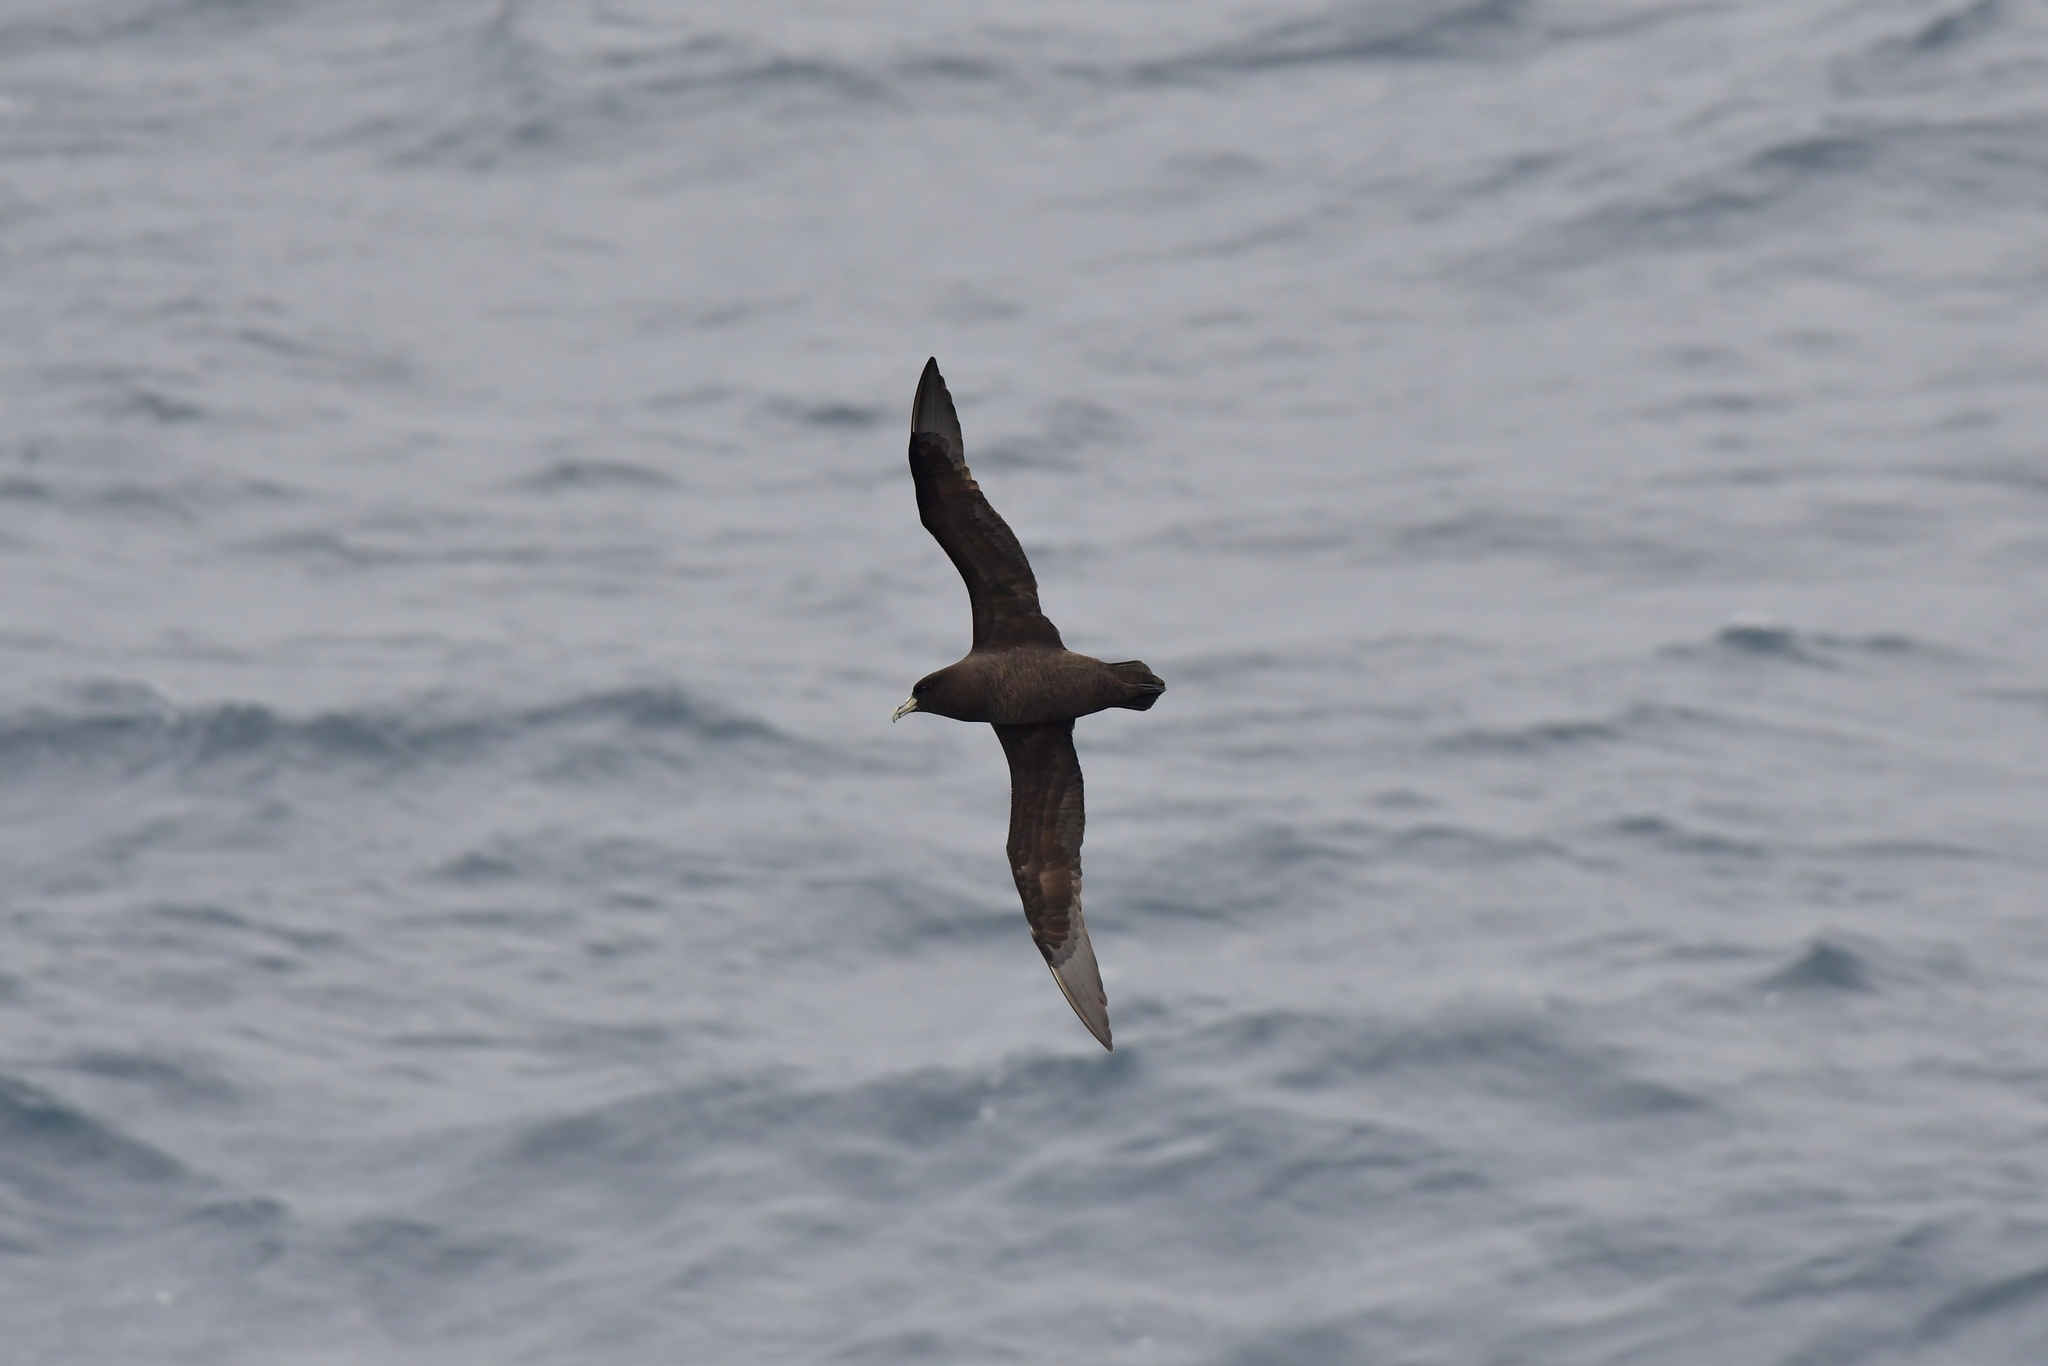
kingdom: Animalia
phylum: Chordata
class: Aves
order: Procellariiformes
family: Procellariidae
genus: Procellaria
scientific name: Procellaria aequinoctialis
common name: White-chinned petrel
